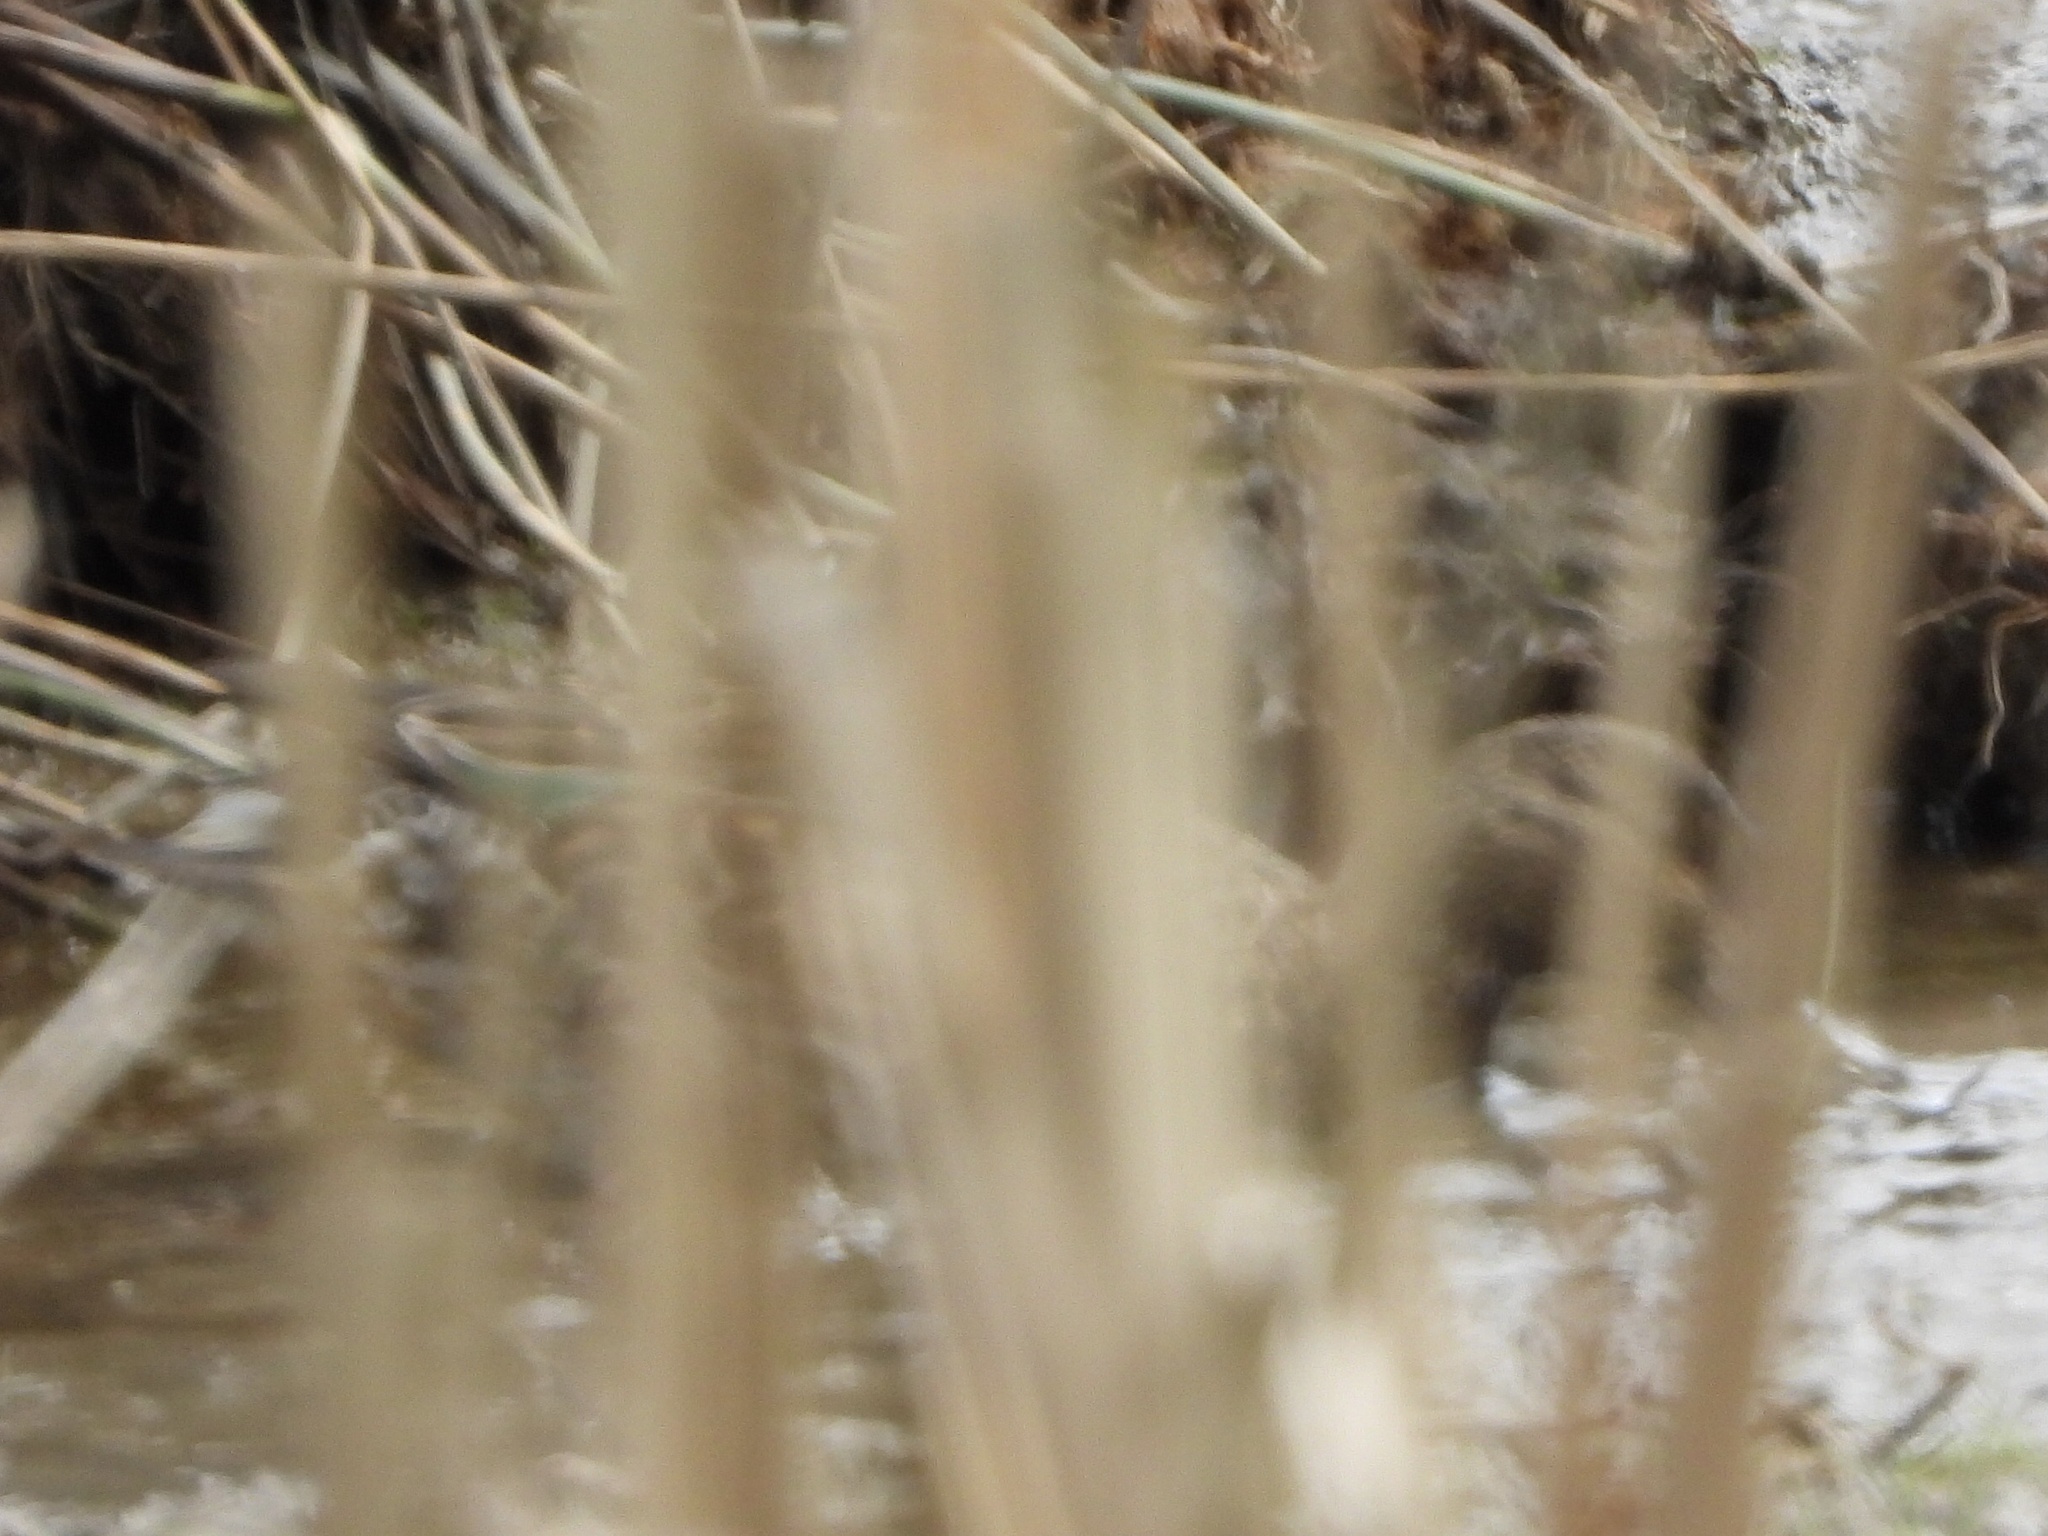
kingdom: Animalia
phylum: Chordata
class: Aves
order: Anseriformes
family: Anatidae
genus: Anas
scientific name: Anas crecca
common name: Eurasian teal
